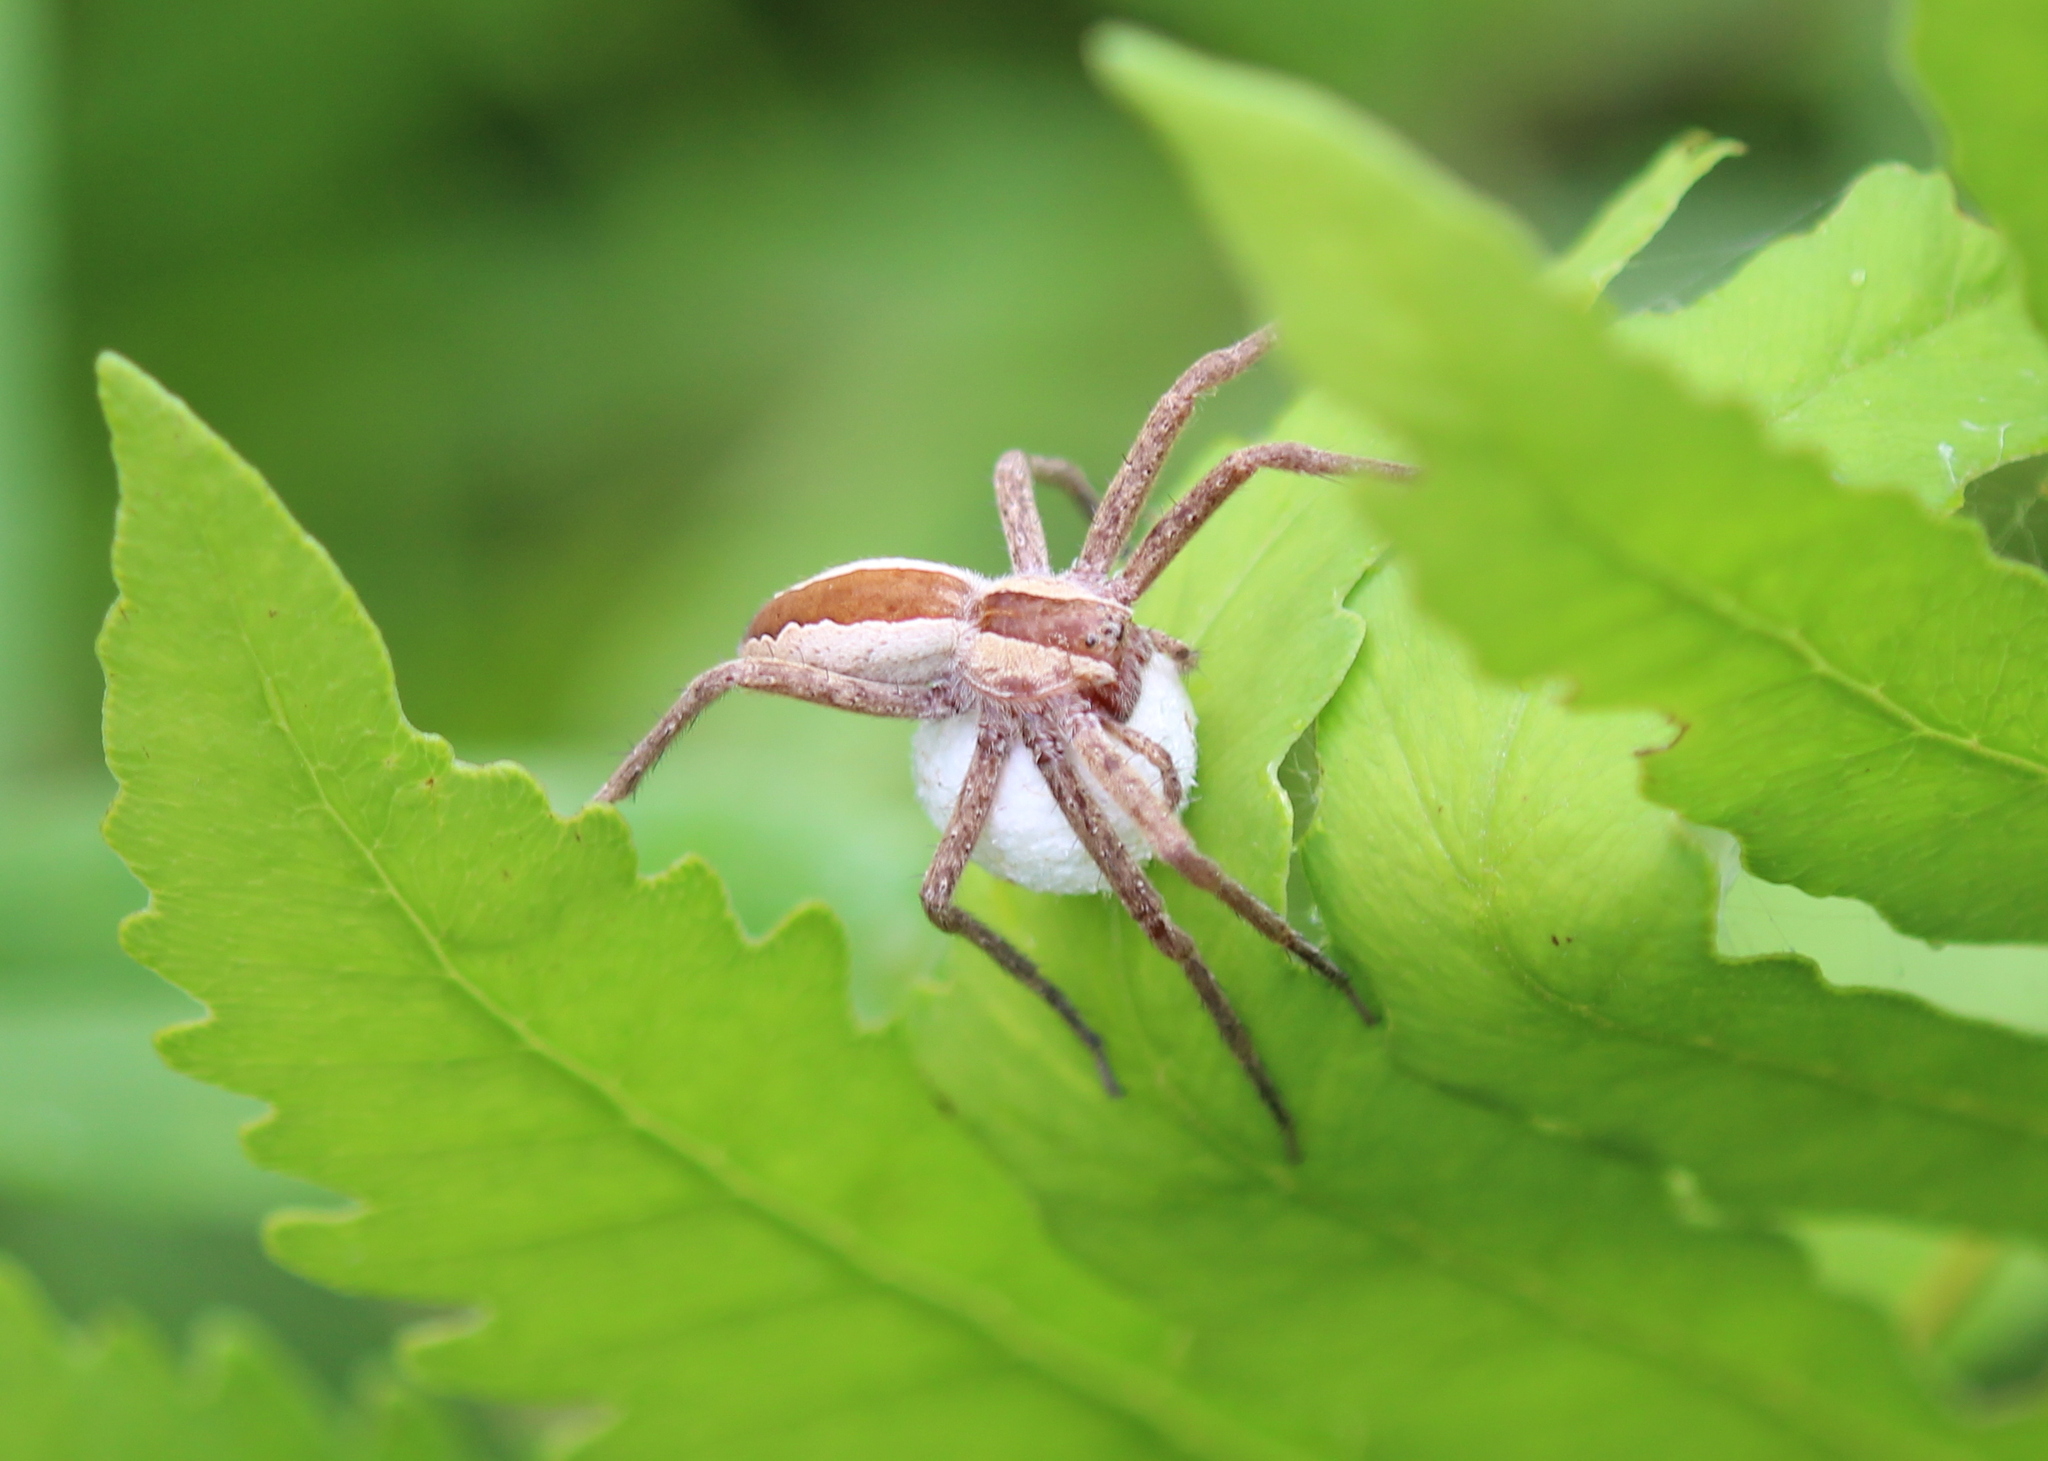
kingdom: Animalia
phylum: Arthropoda
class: Arachnida
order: Araneae
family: Pisauridae
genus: Pisaurina
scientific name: Pisaurina mira
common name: American nursery web spider
